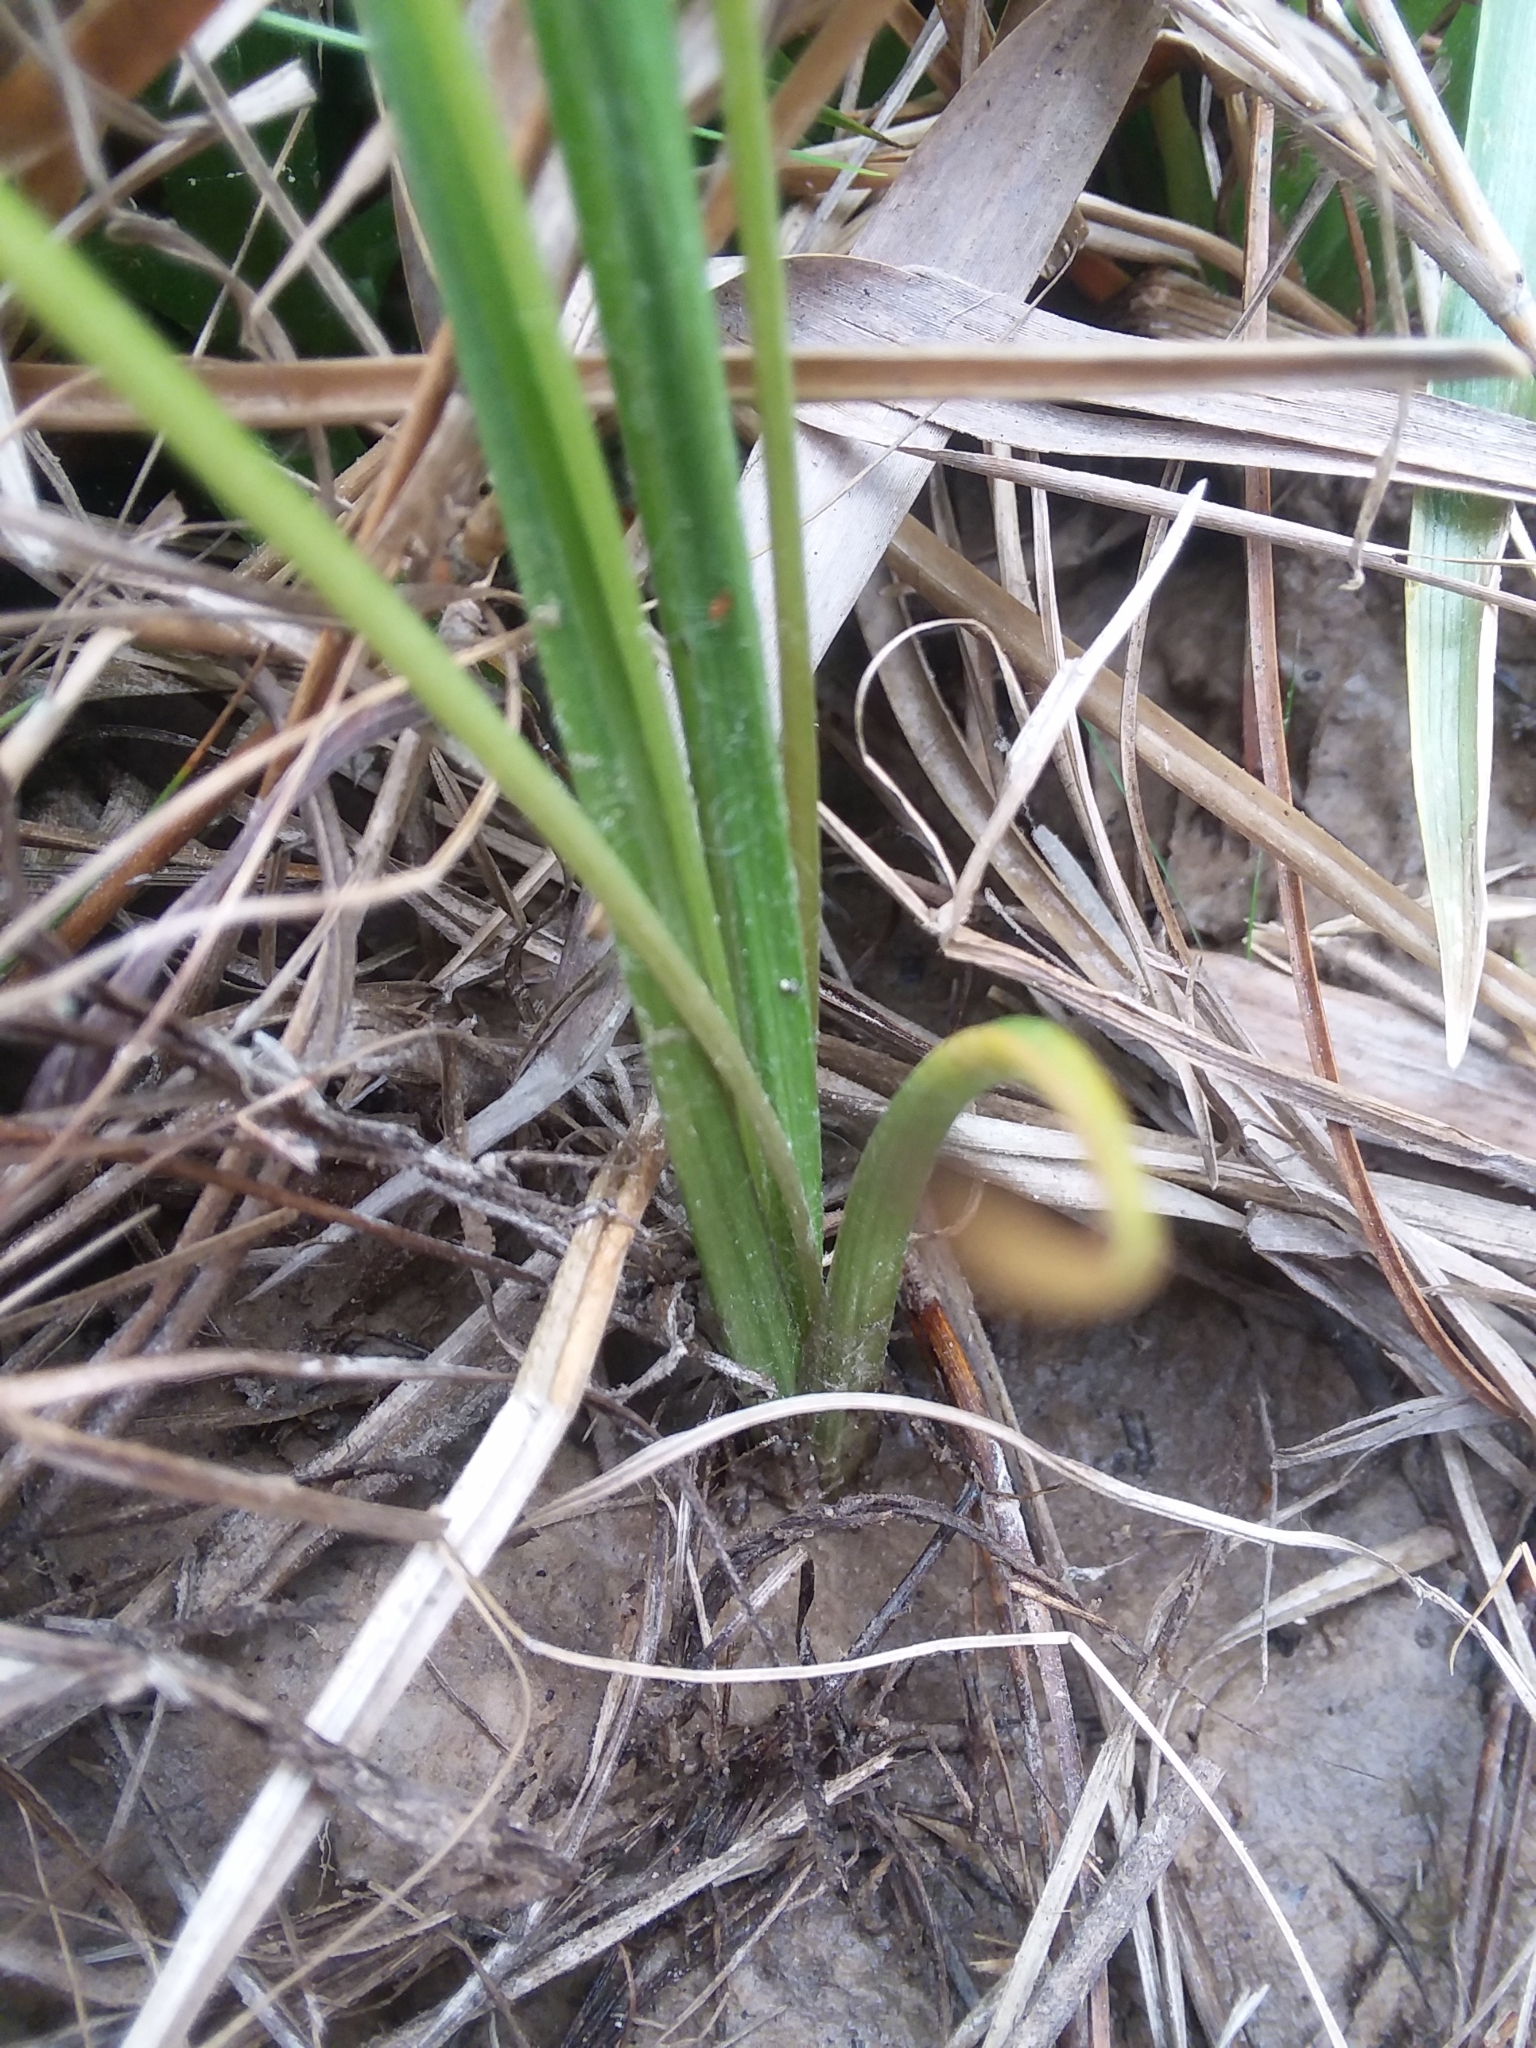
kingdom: Plantae
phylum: Tracheophyta
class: Liliopsida
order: Asparagales
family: Hypoxidaceae
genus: Hypoxis
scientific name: Hypoxis hirsuta
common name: Common goldstar
